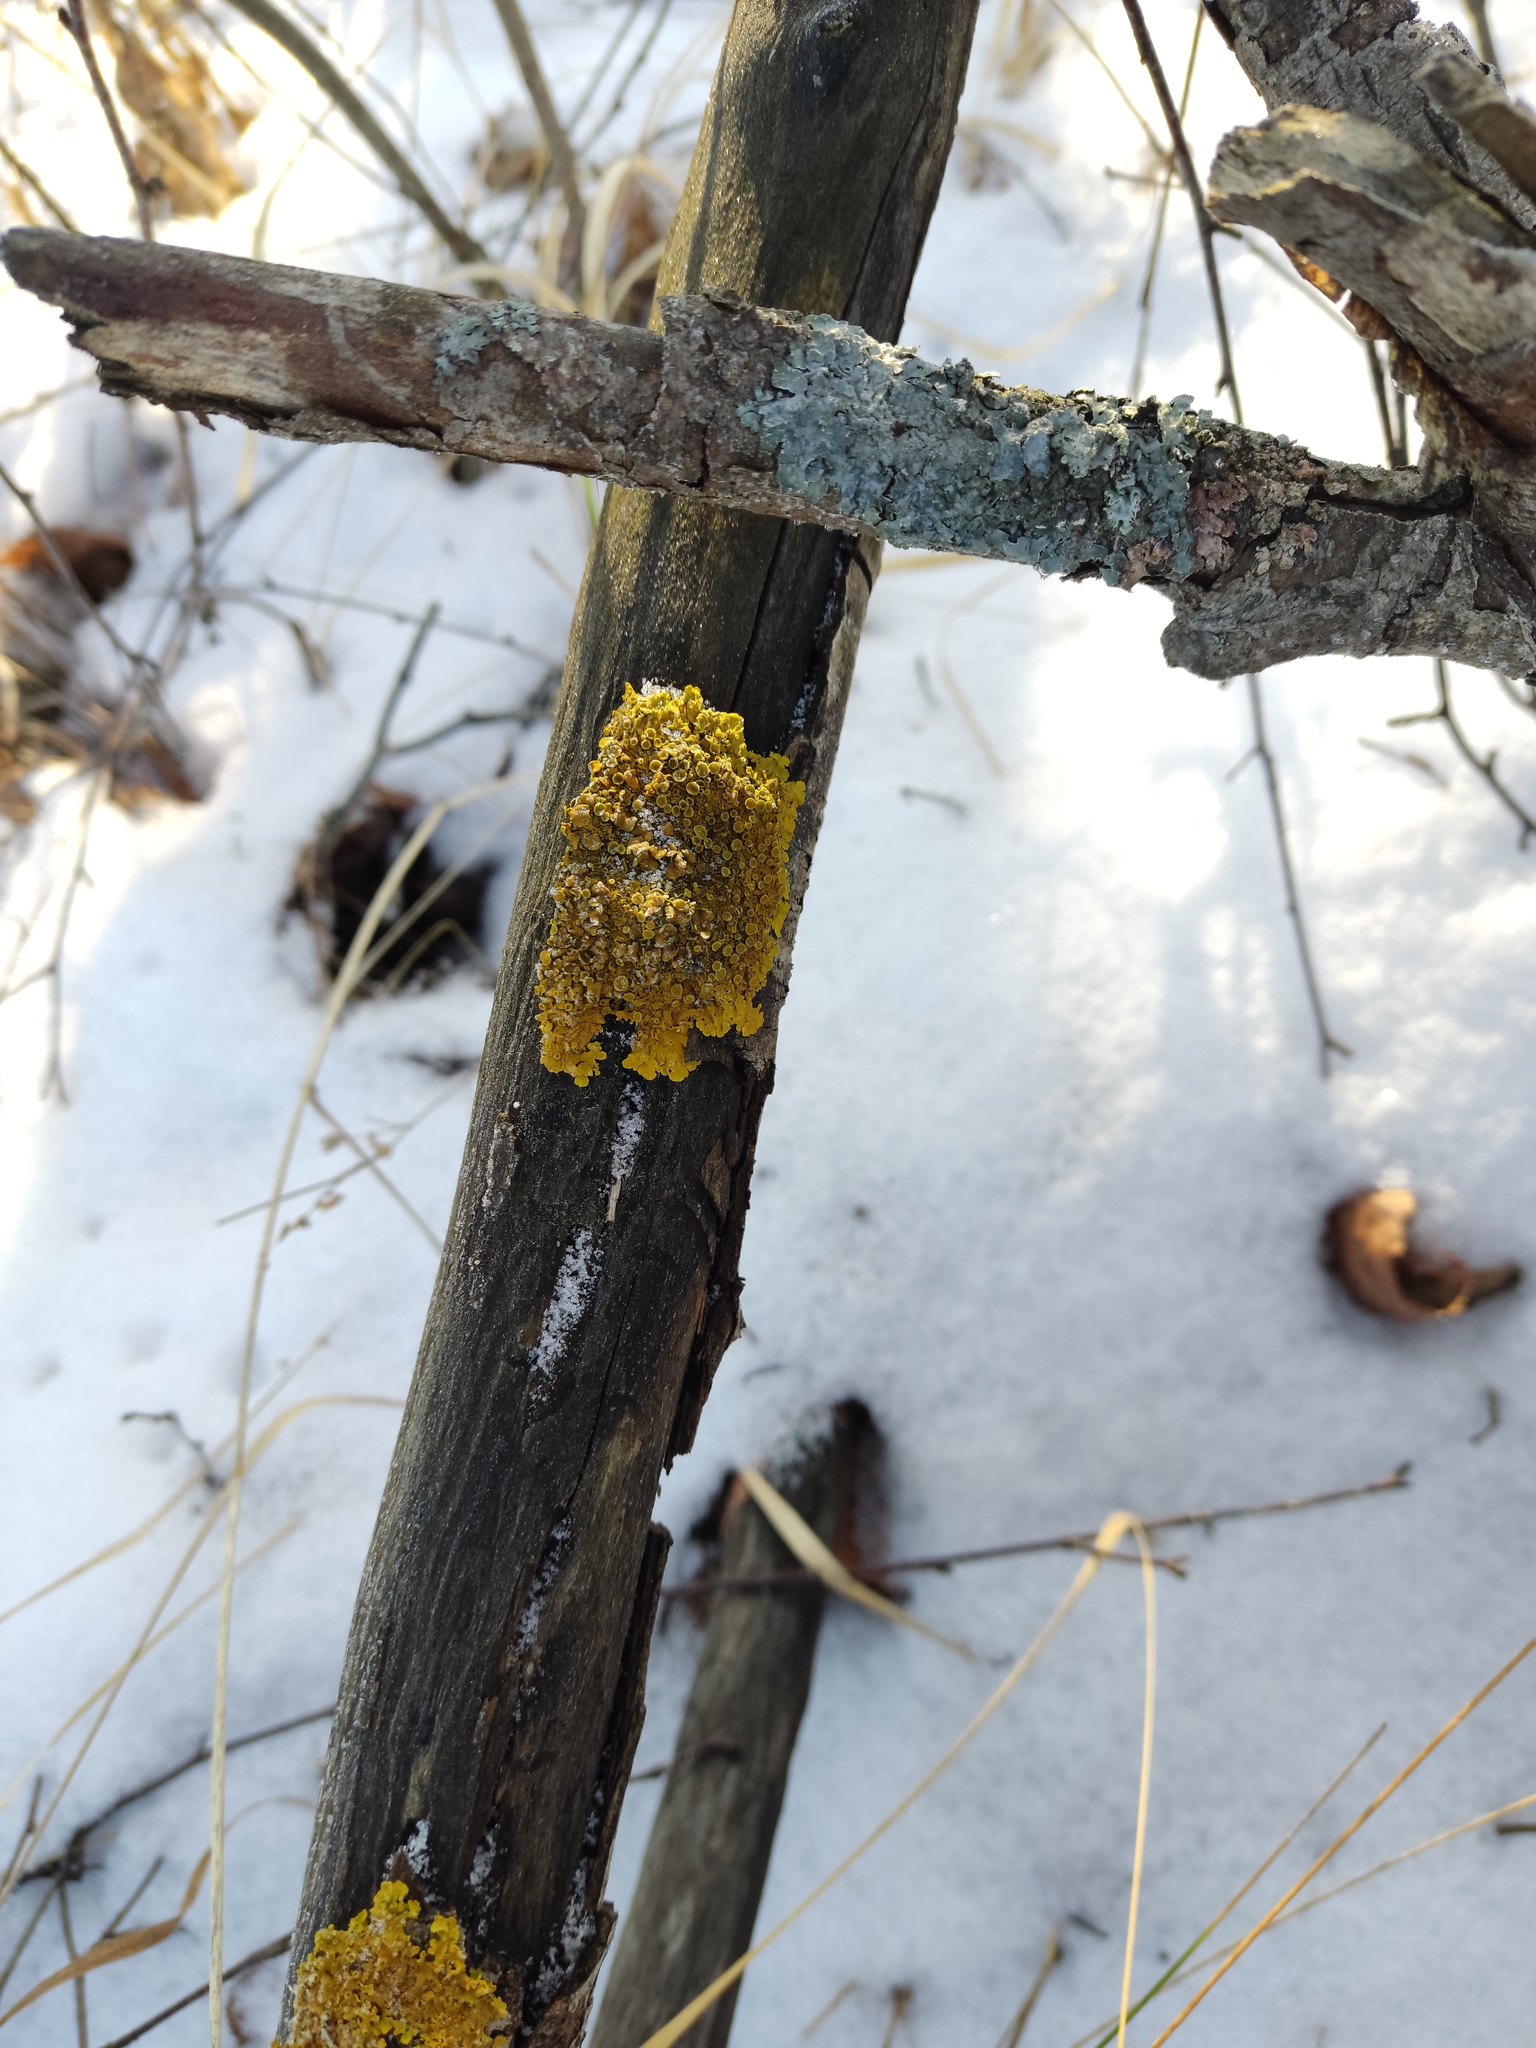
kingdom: Fungi
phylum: Ascomycota
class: Lecanoromycetes
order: Teloschistales
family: Teloschistaceae
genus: Xanthoria
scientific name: Xanthoria parietina
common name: Common orange lichen
